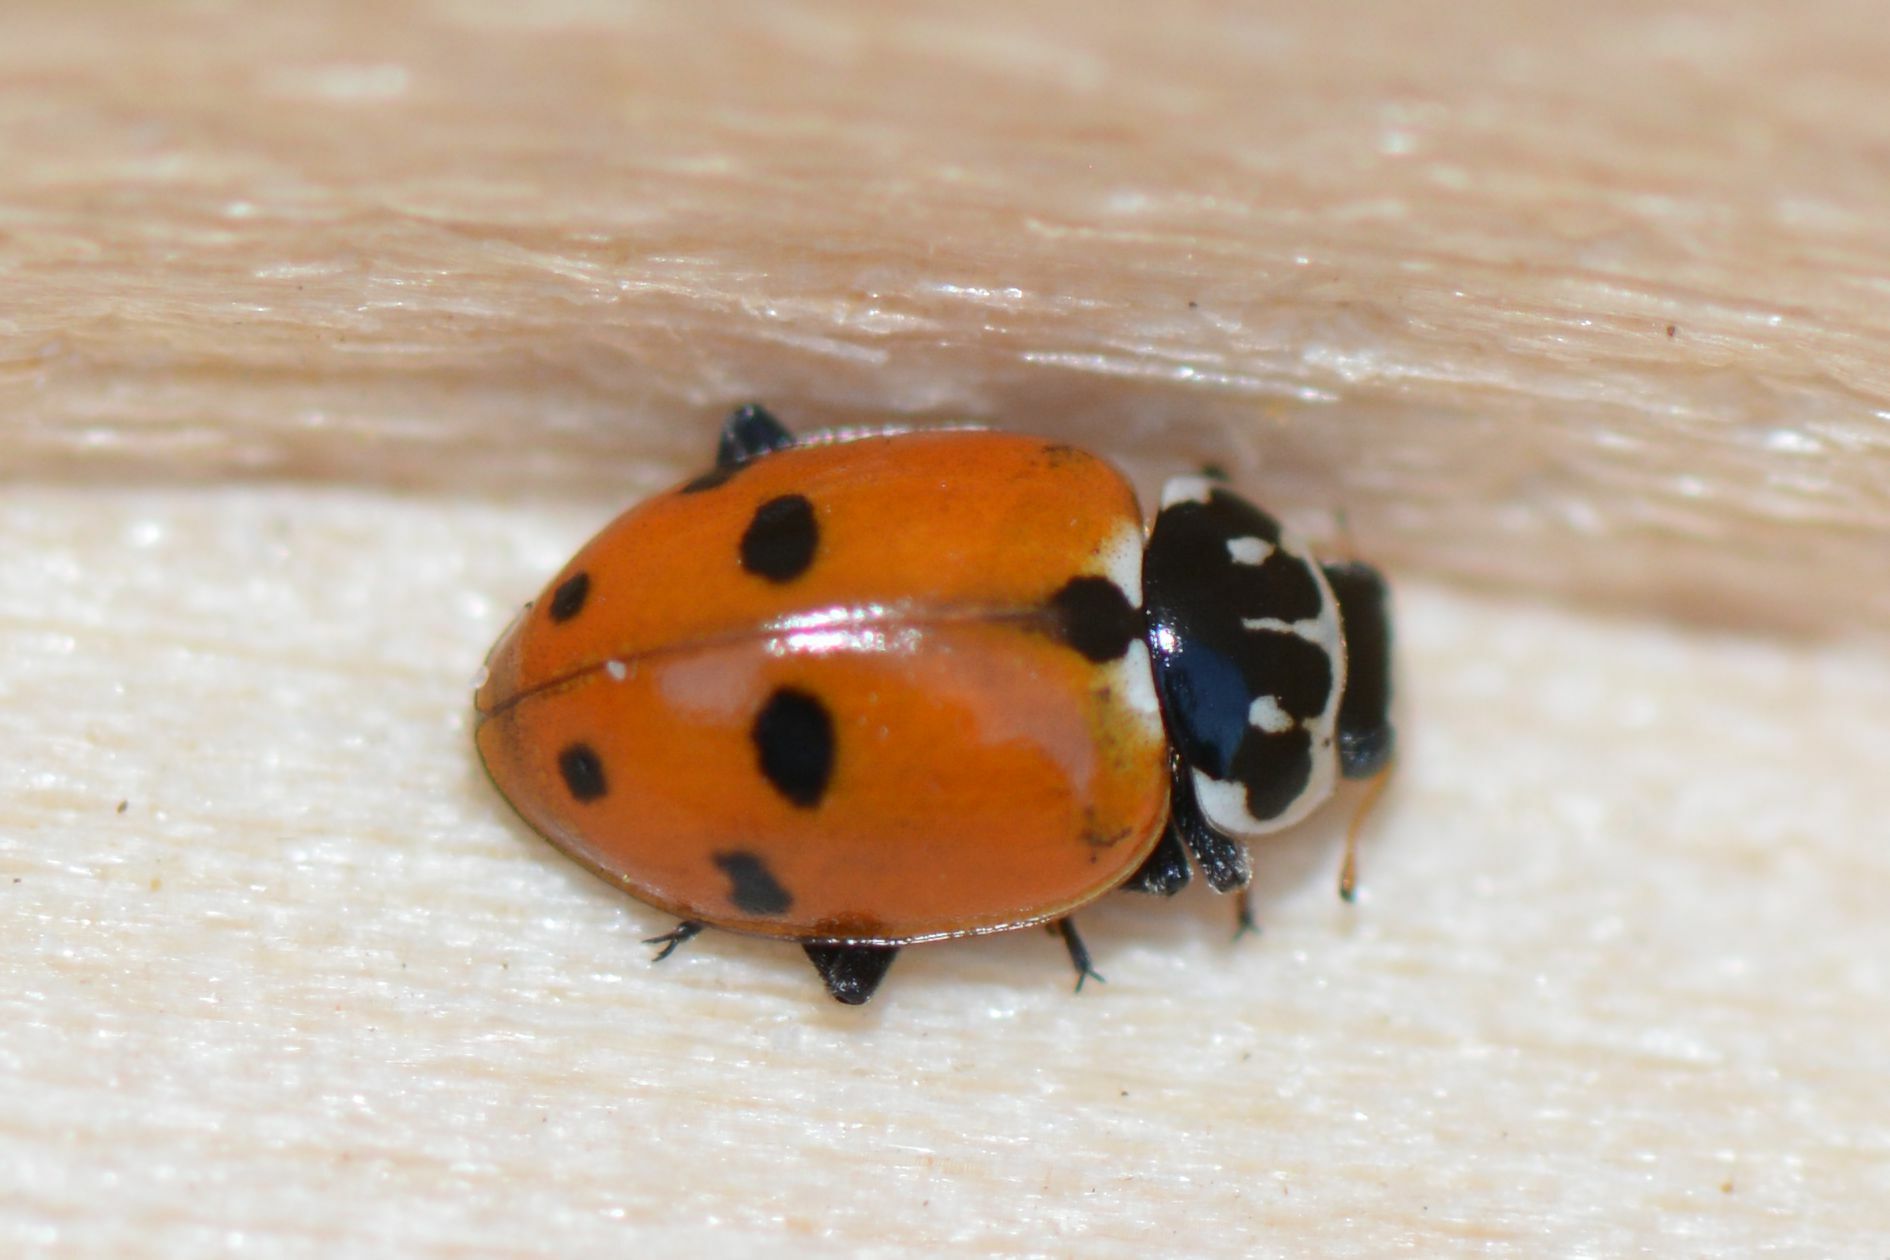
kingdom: Animalia
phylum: Arthropoda
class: Insecta
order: Coleoptera
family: Coccinellidae
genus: Hippodamia
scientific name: Hippodamia variegata
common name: Ladybird beetle
